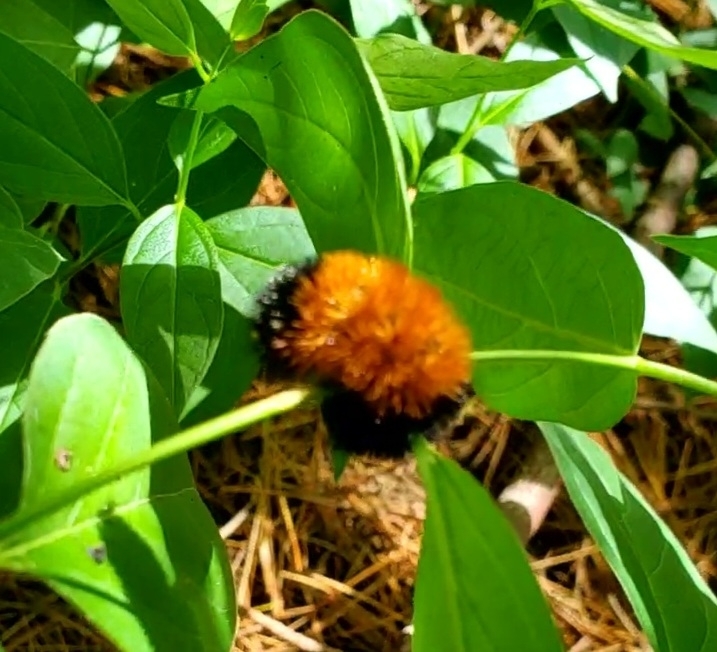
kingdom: Animalia
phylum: Arthropoda
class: Insecta
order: Lepidoptera
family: Erebidae
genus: Pyrrharctia
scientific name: Pyrrharctia isabella
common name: Isabella tiger moth
